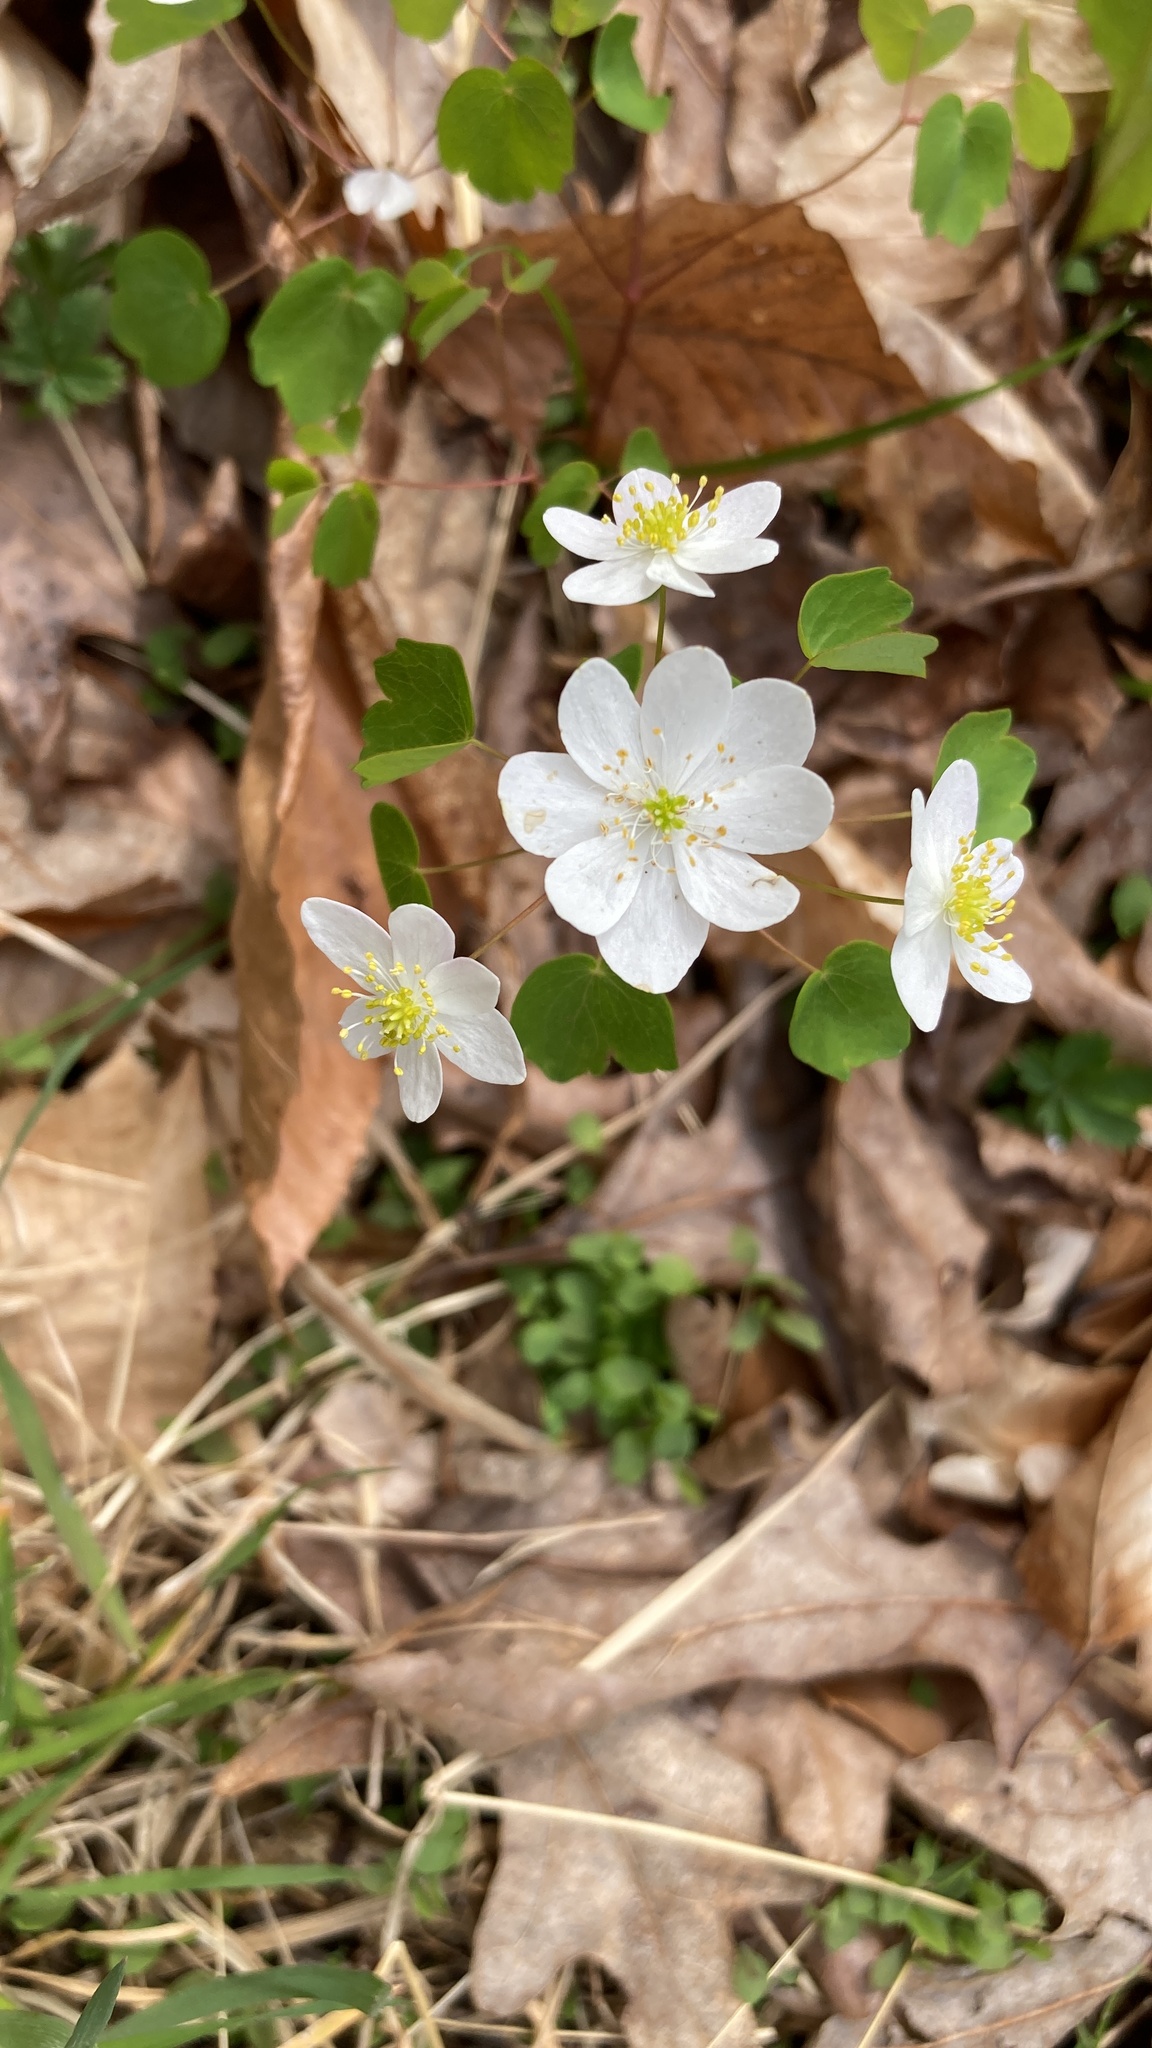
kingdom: Plantae
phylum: Tracheophyta
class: Magnoliopsida
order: Ranunculales
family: Ranunculaceae
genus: Thalictrum
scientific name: Thalictrum thalictroides
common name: Rue-anemone
